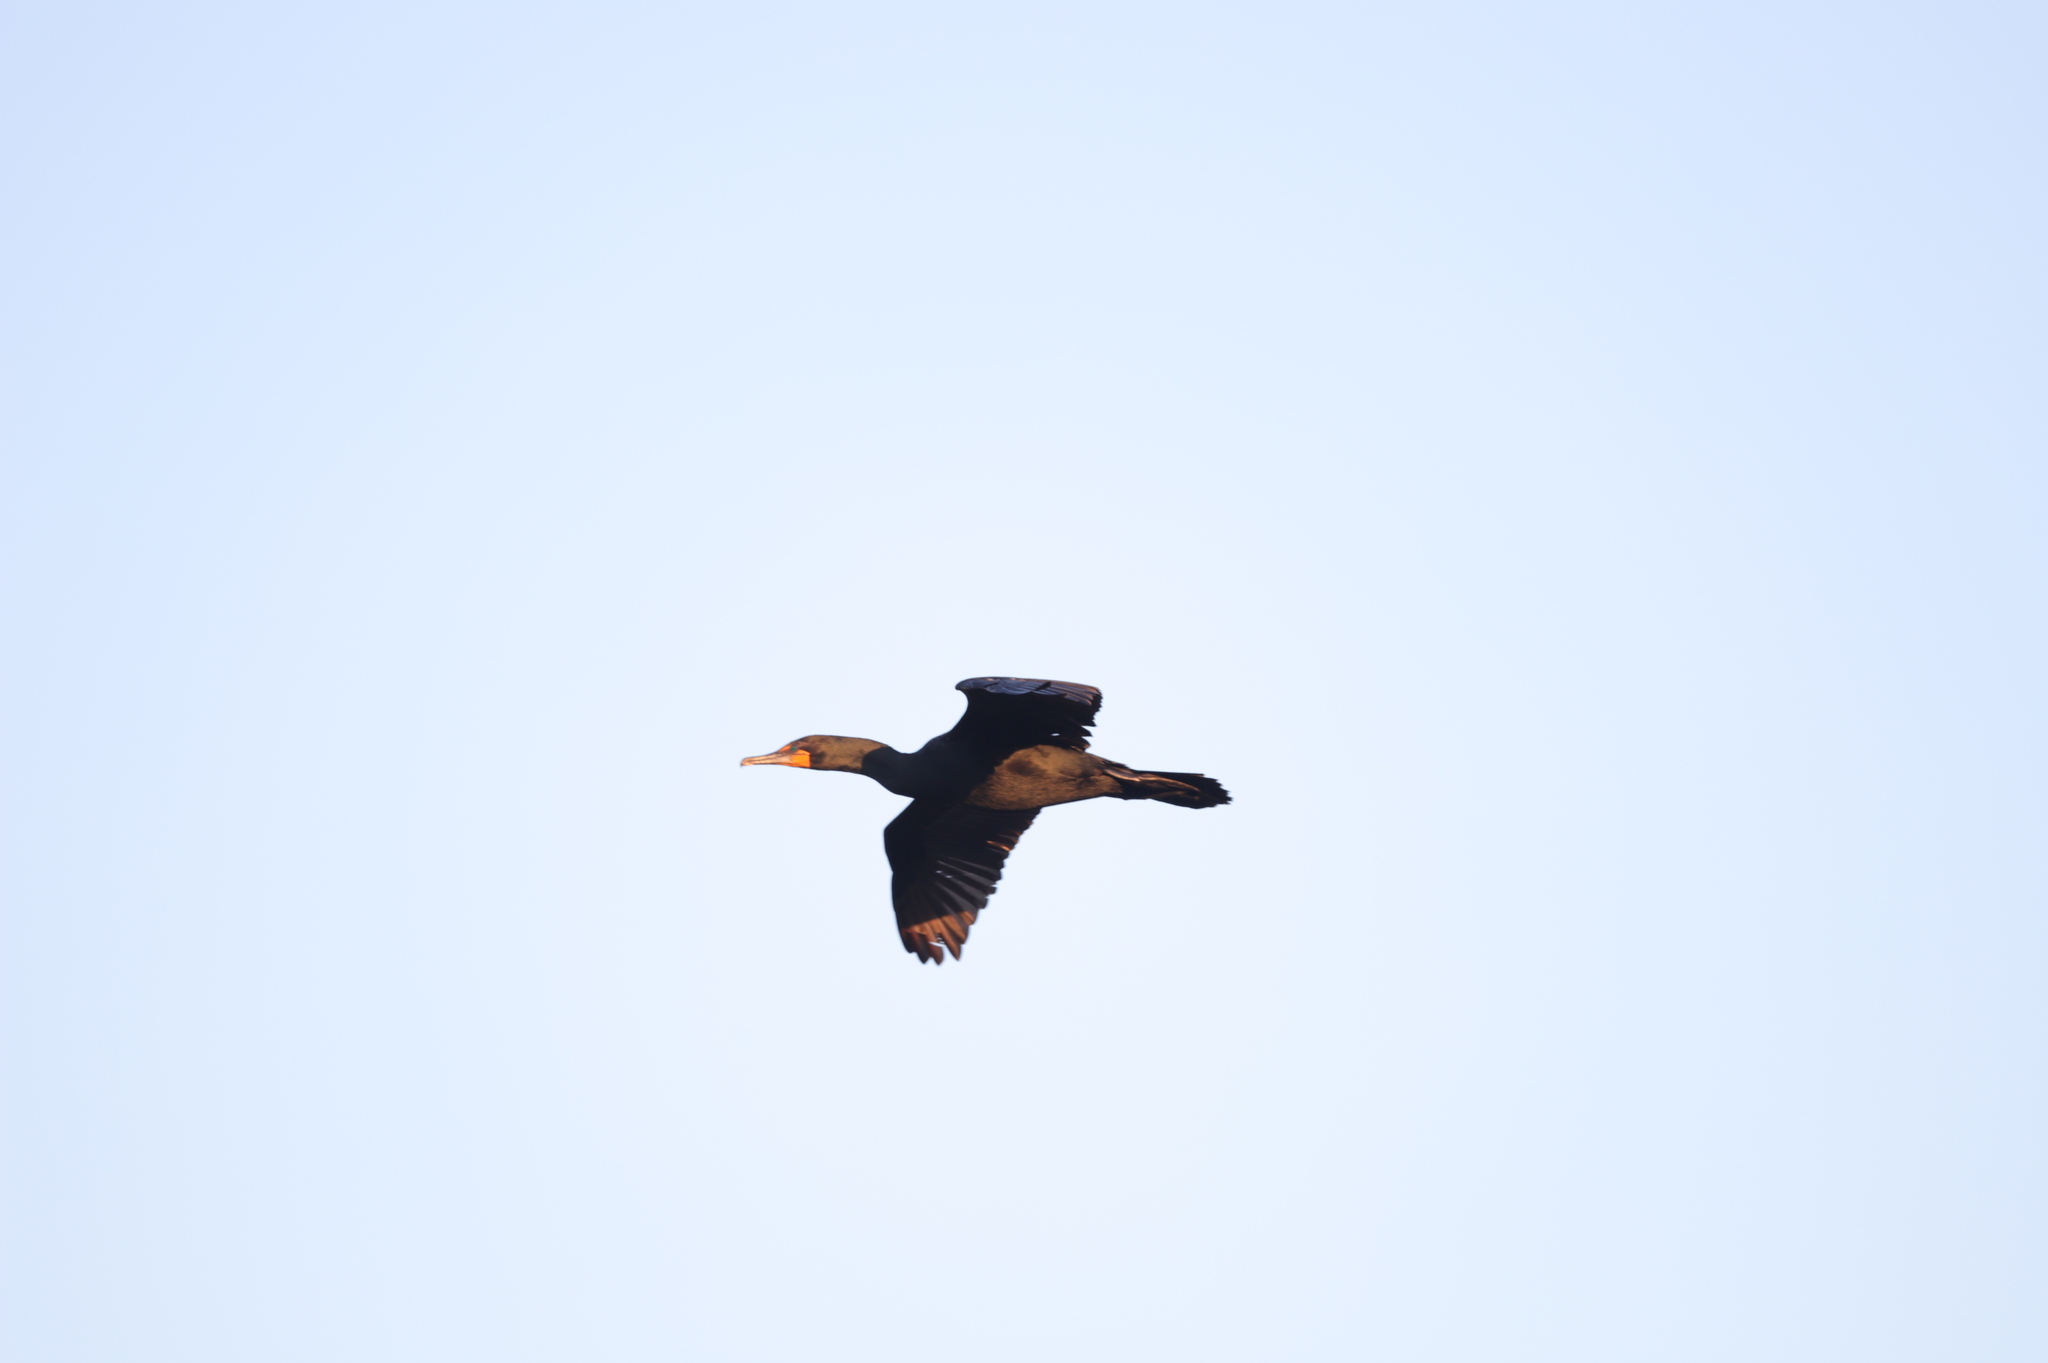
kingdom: Animalia
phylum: Chordata
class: Aves
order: Suliformes
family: Phalacrocoracidae
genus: Phalacrocorax
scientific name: Phalacrocorax auritus
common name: Double-crested cormorant
